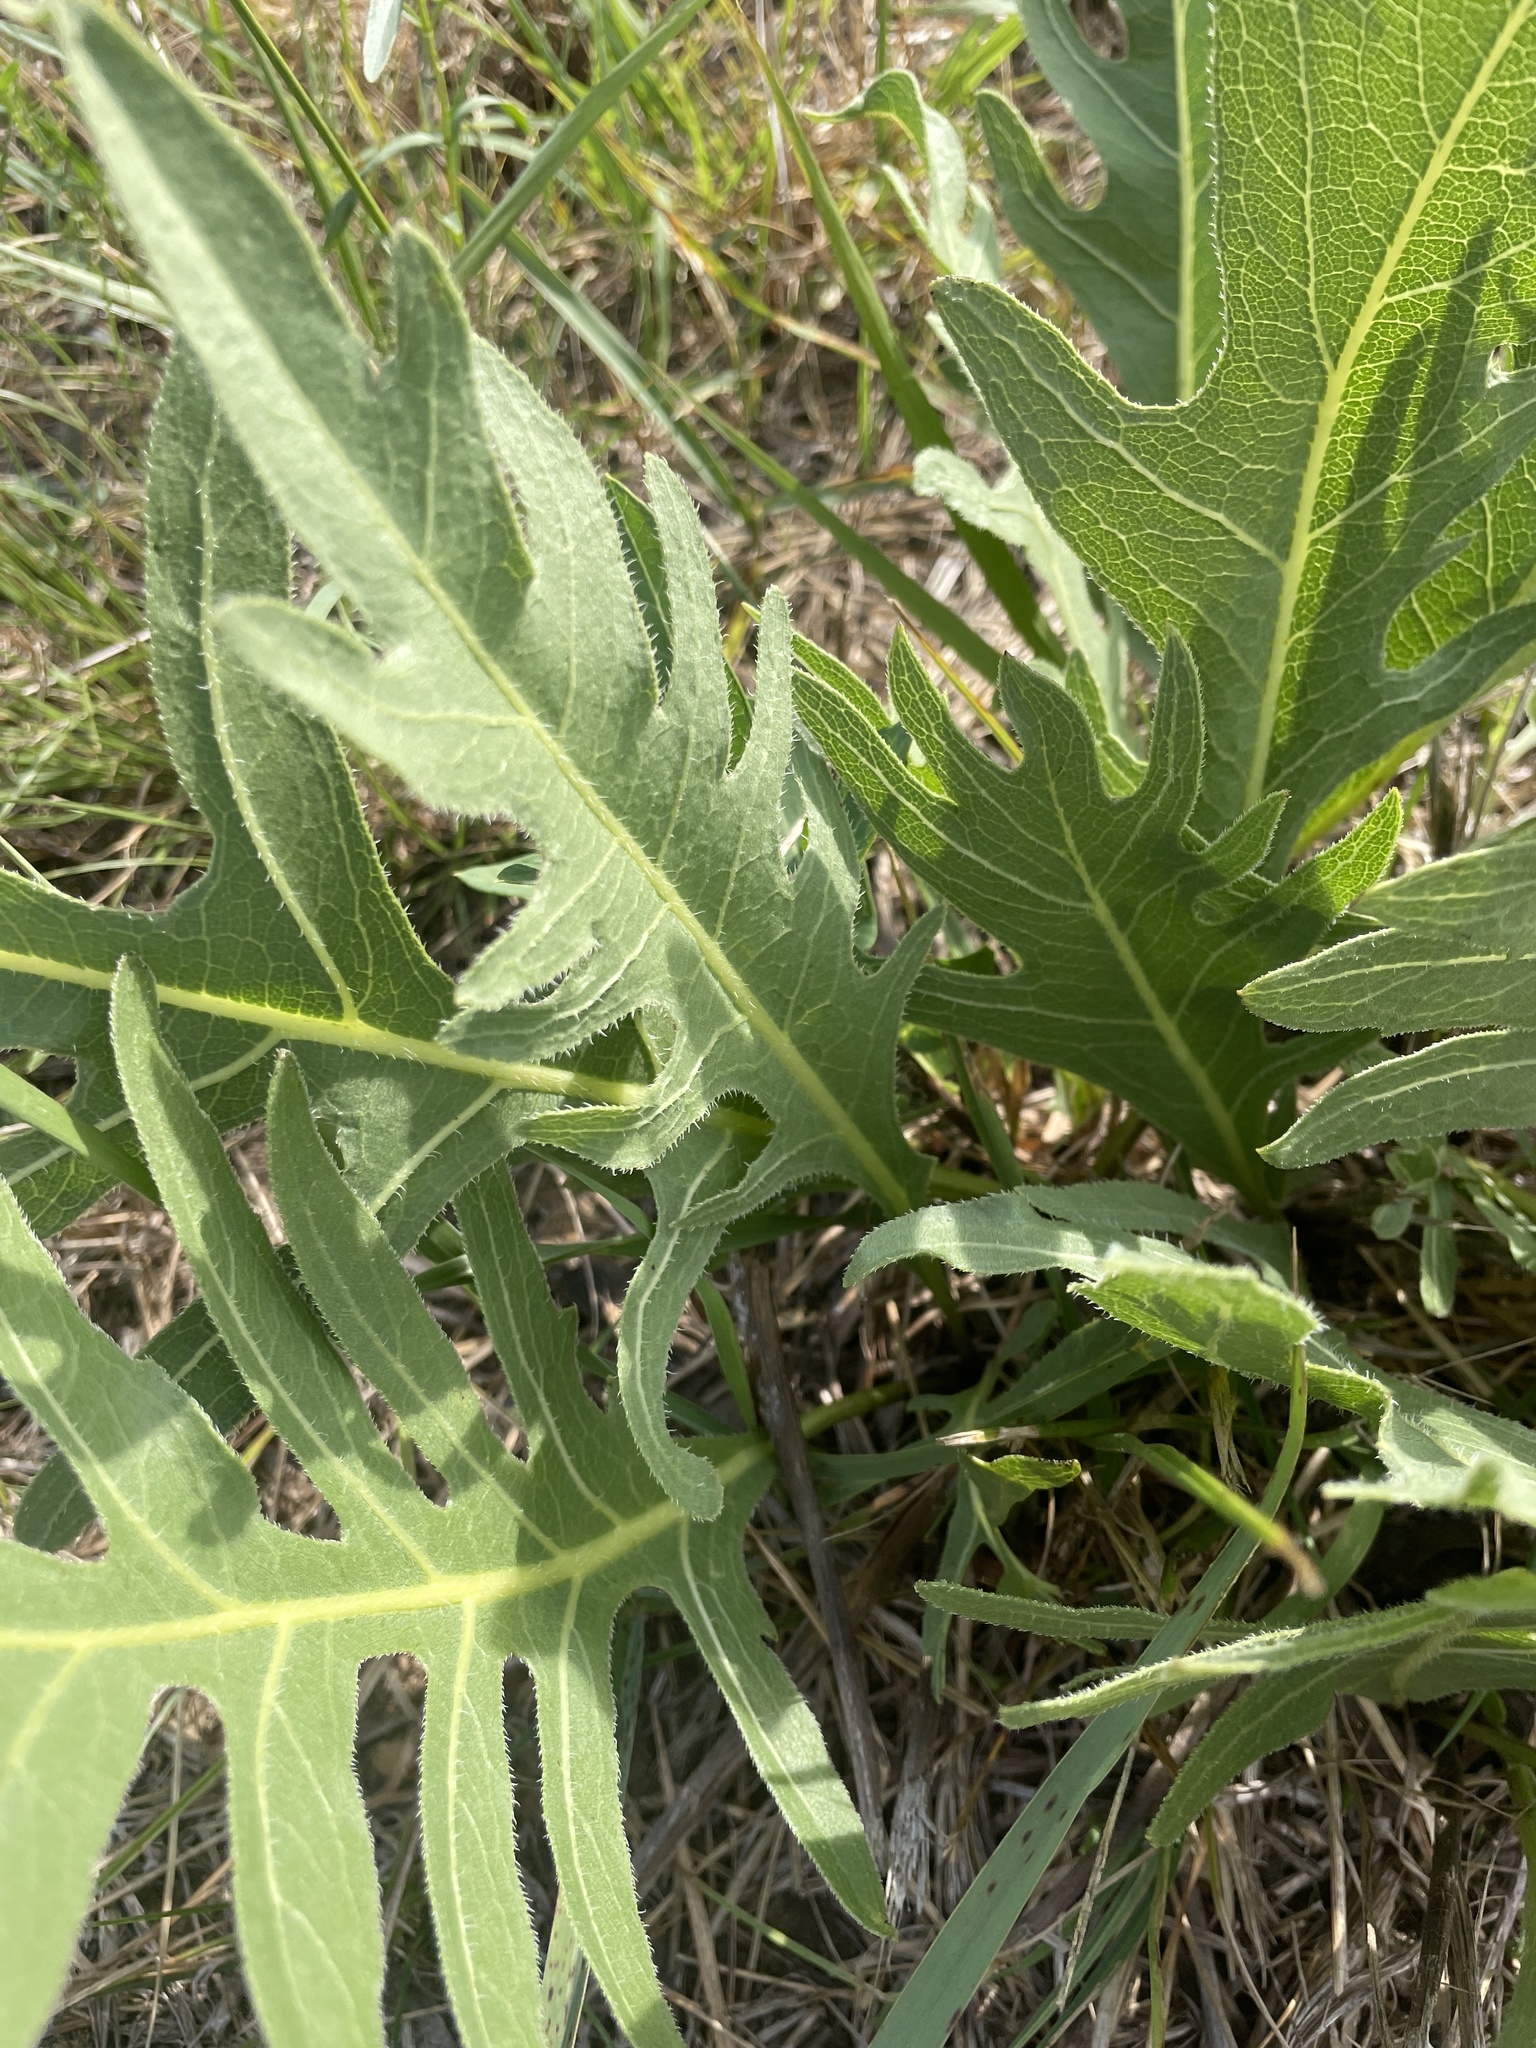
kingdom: Plantae
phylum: Tracheophyta
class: Magnoliopsida
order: Asterales
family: Asteraceae
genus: Silphium
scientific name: Silphium laciniatum
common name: Polarplant
